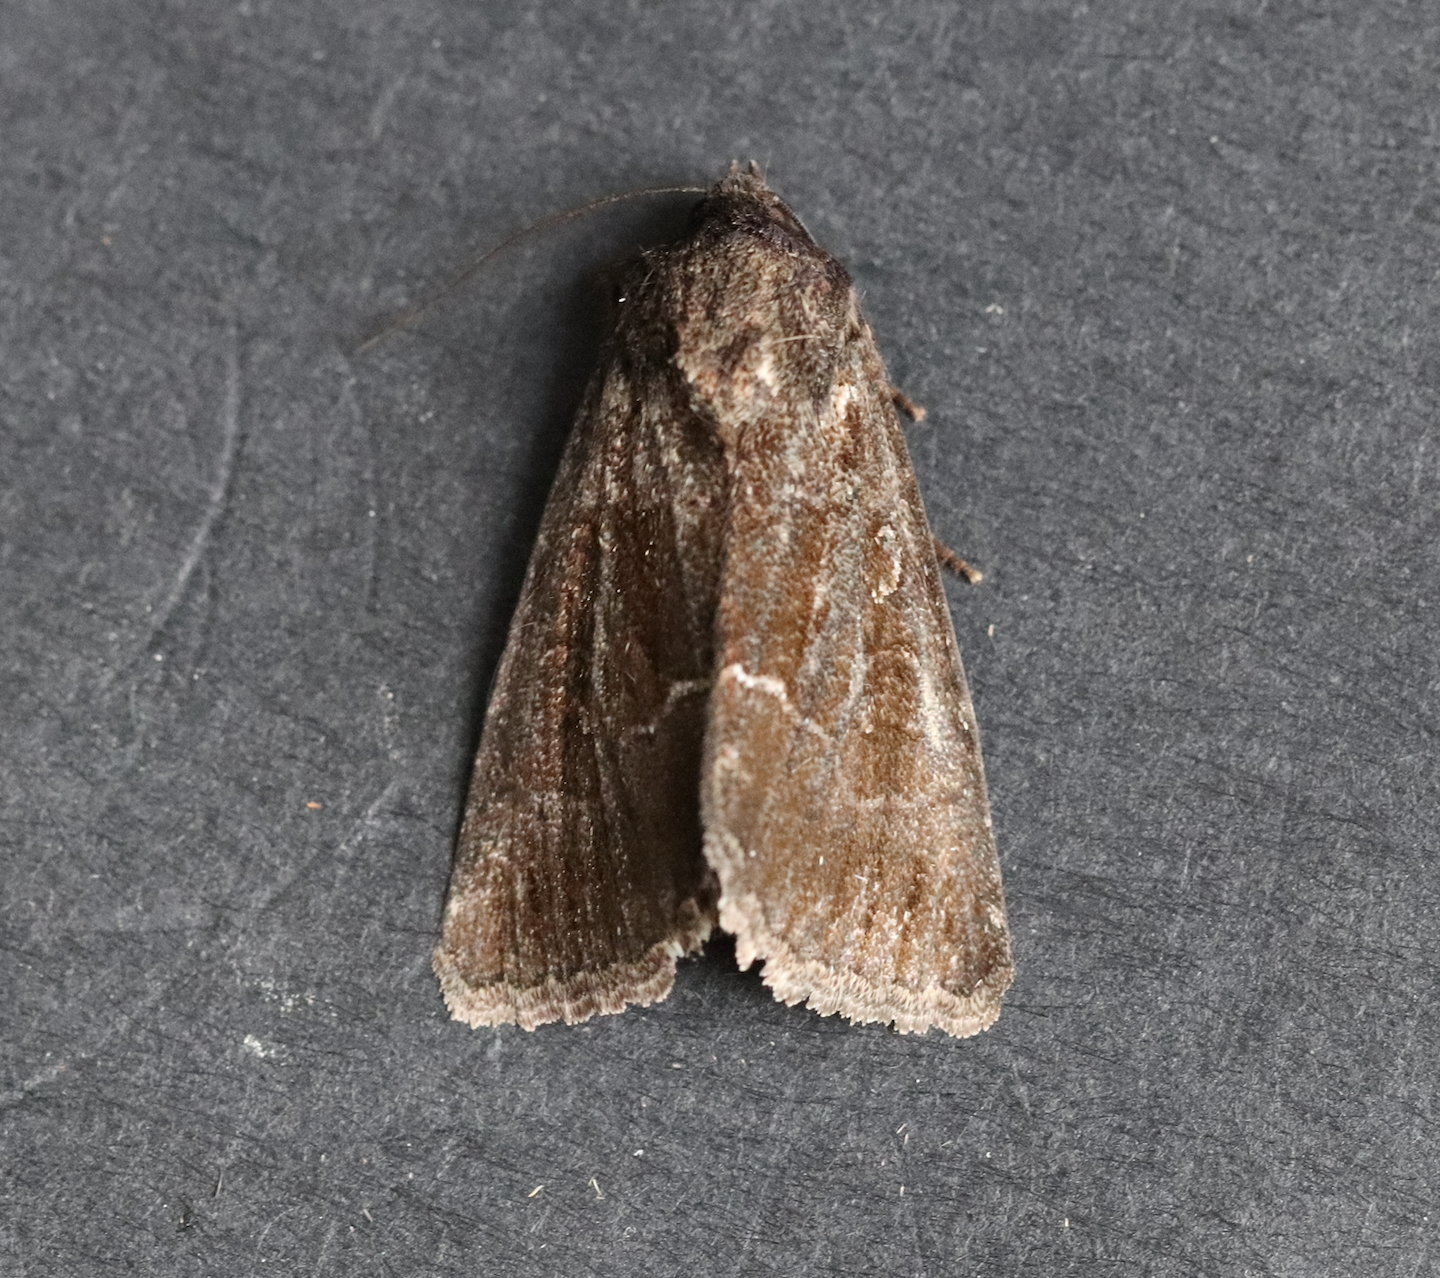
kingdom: Animalia
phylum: Arthropoda
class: Insecta
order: Lepidoptera
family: Noctuidae
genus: Thalpophila
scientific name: Thalpophila matura
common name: Straw underwing
